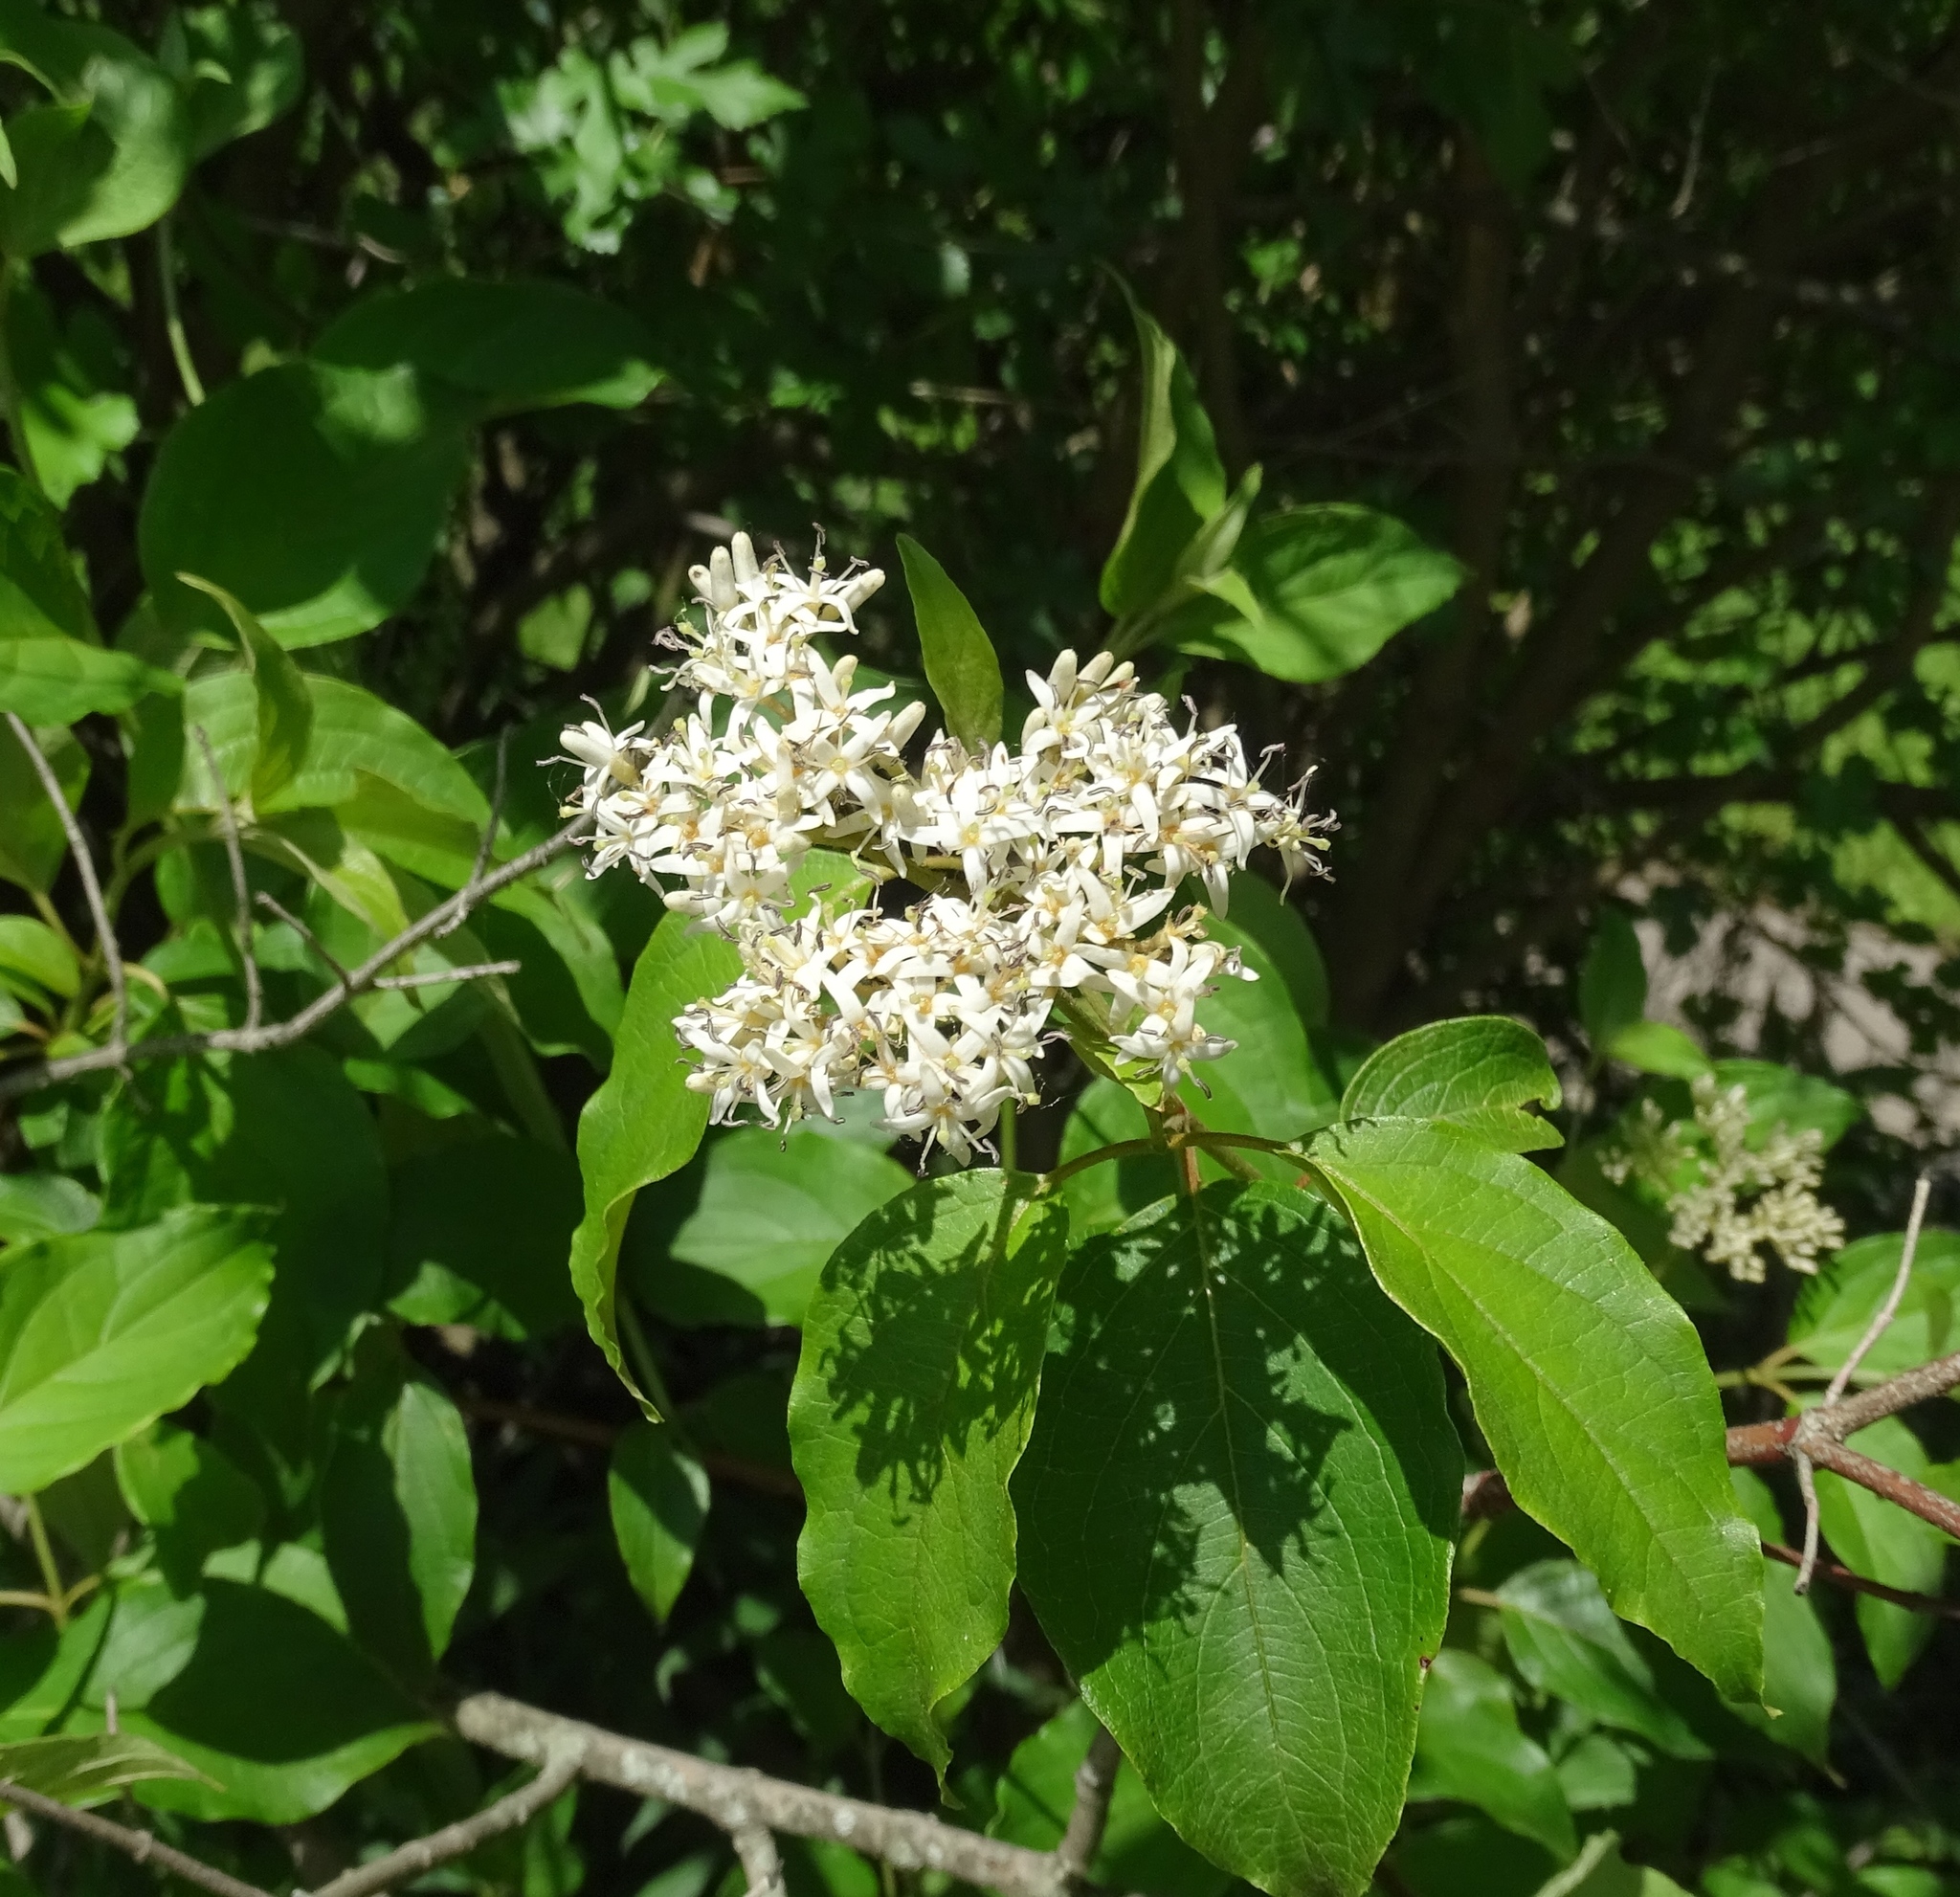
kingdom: Plantae
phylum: Tracheophyta
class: Magnoliopsida
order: Cornales
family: Cornaceae
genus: Cornus
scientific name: Cornus amomum
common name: Silky dogwood
